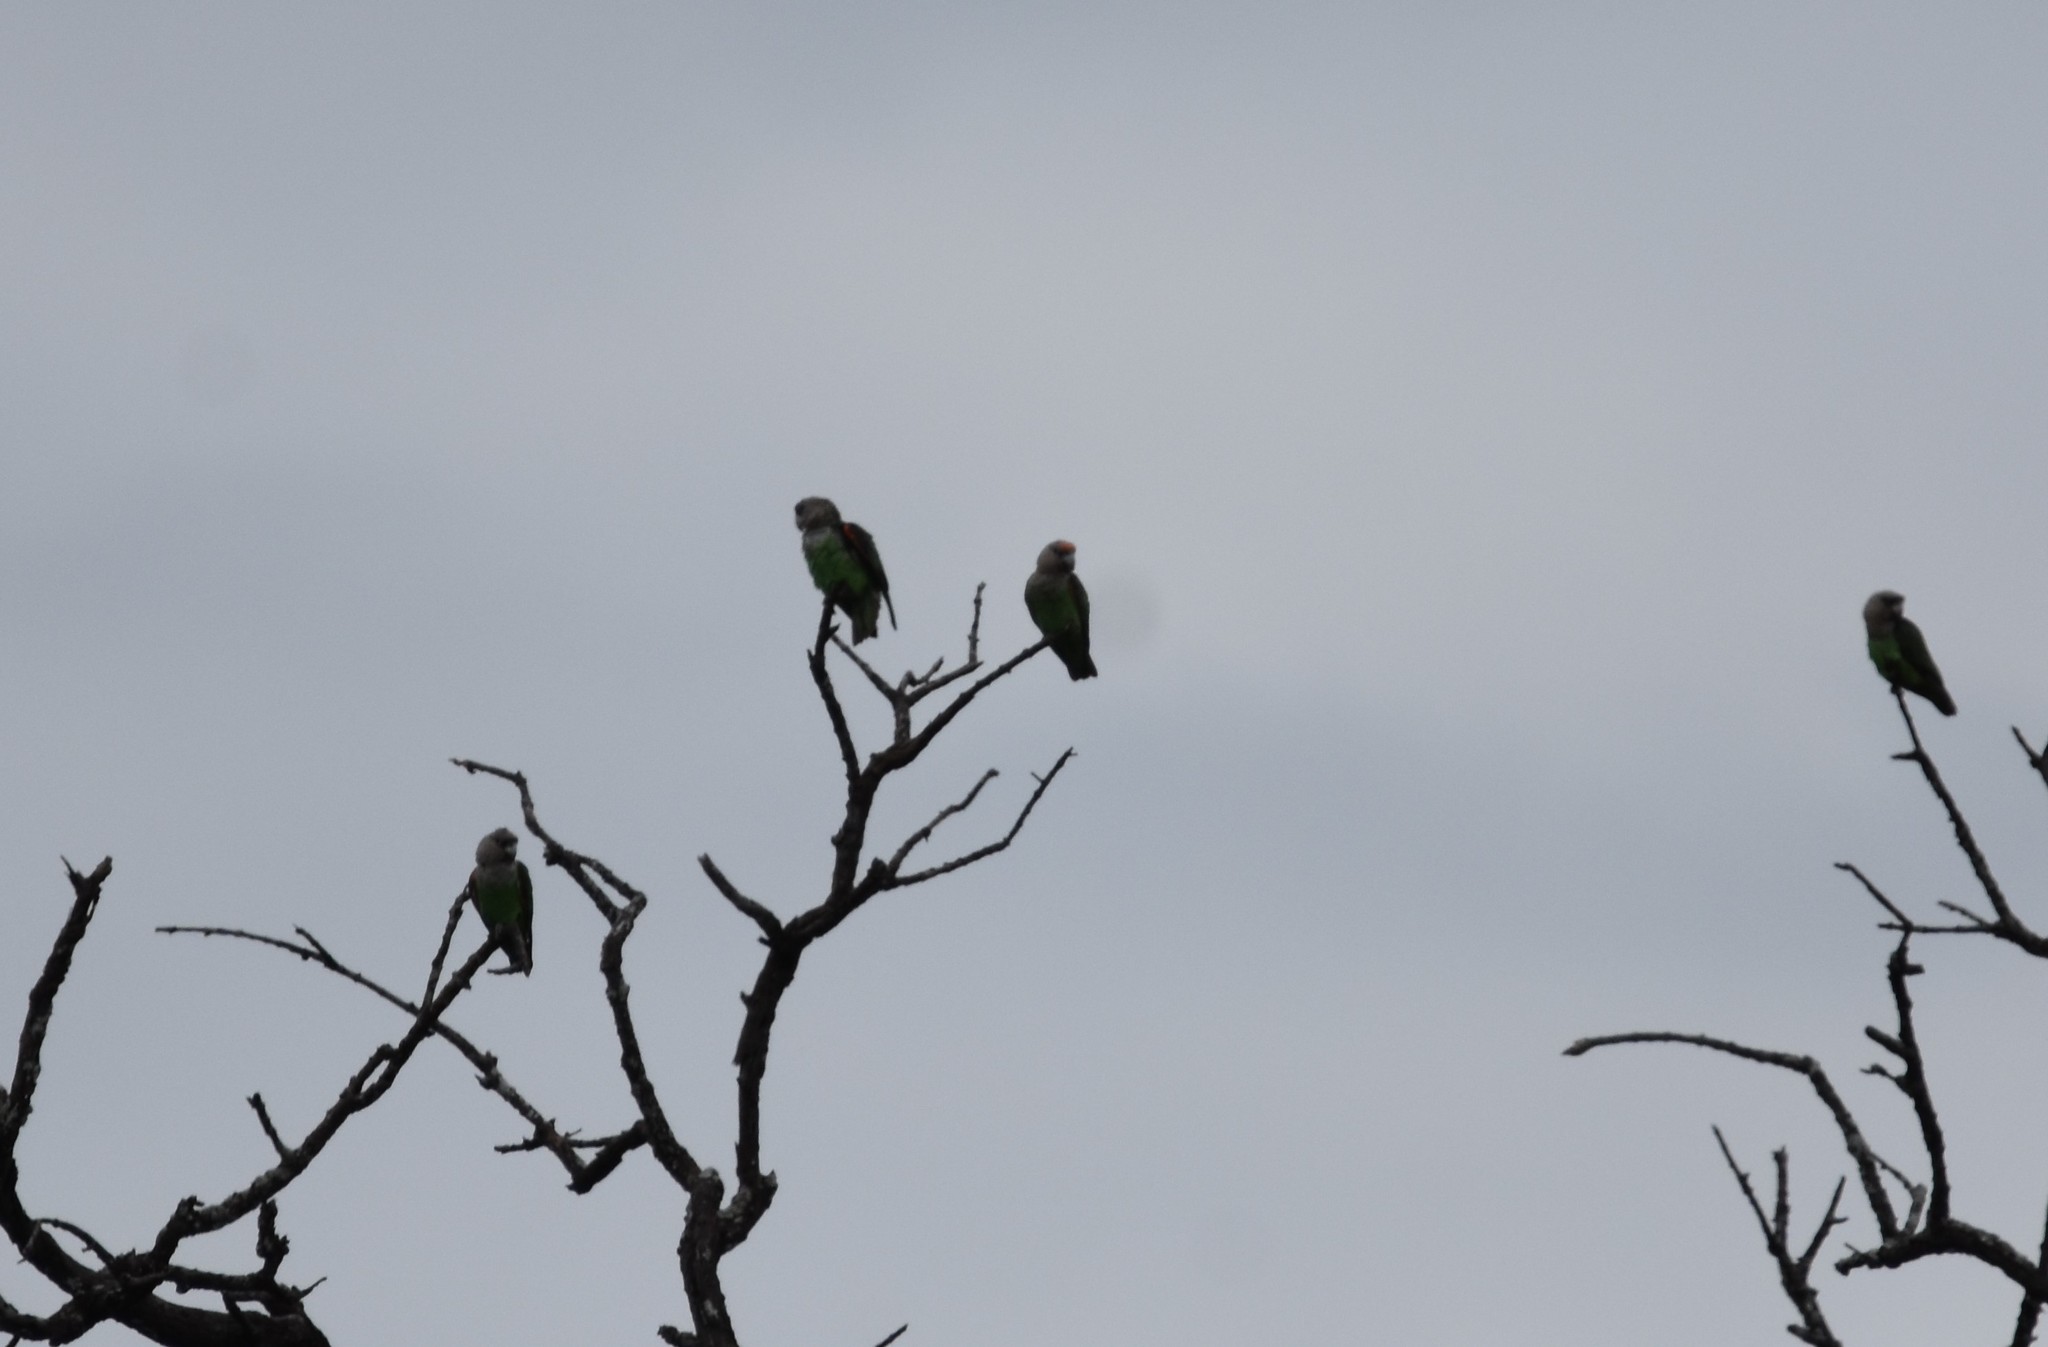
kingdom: Animalia
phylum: Chordata
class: Aves
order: Psittaciformes
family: Psittacidae
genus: Poicephalus
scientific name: Poicephalus robustus
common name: Cape parrot
